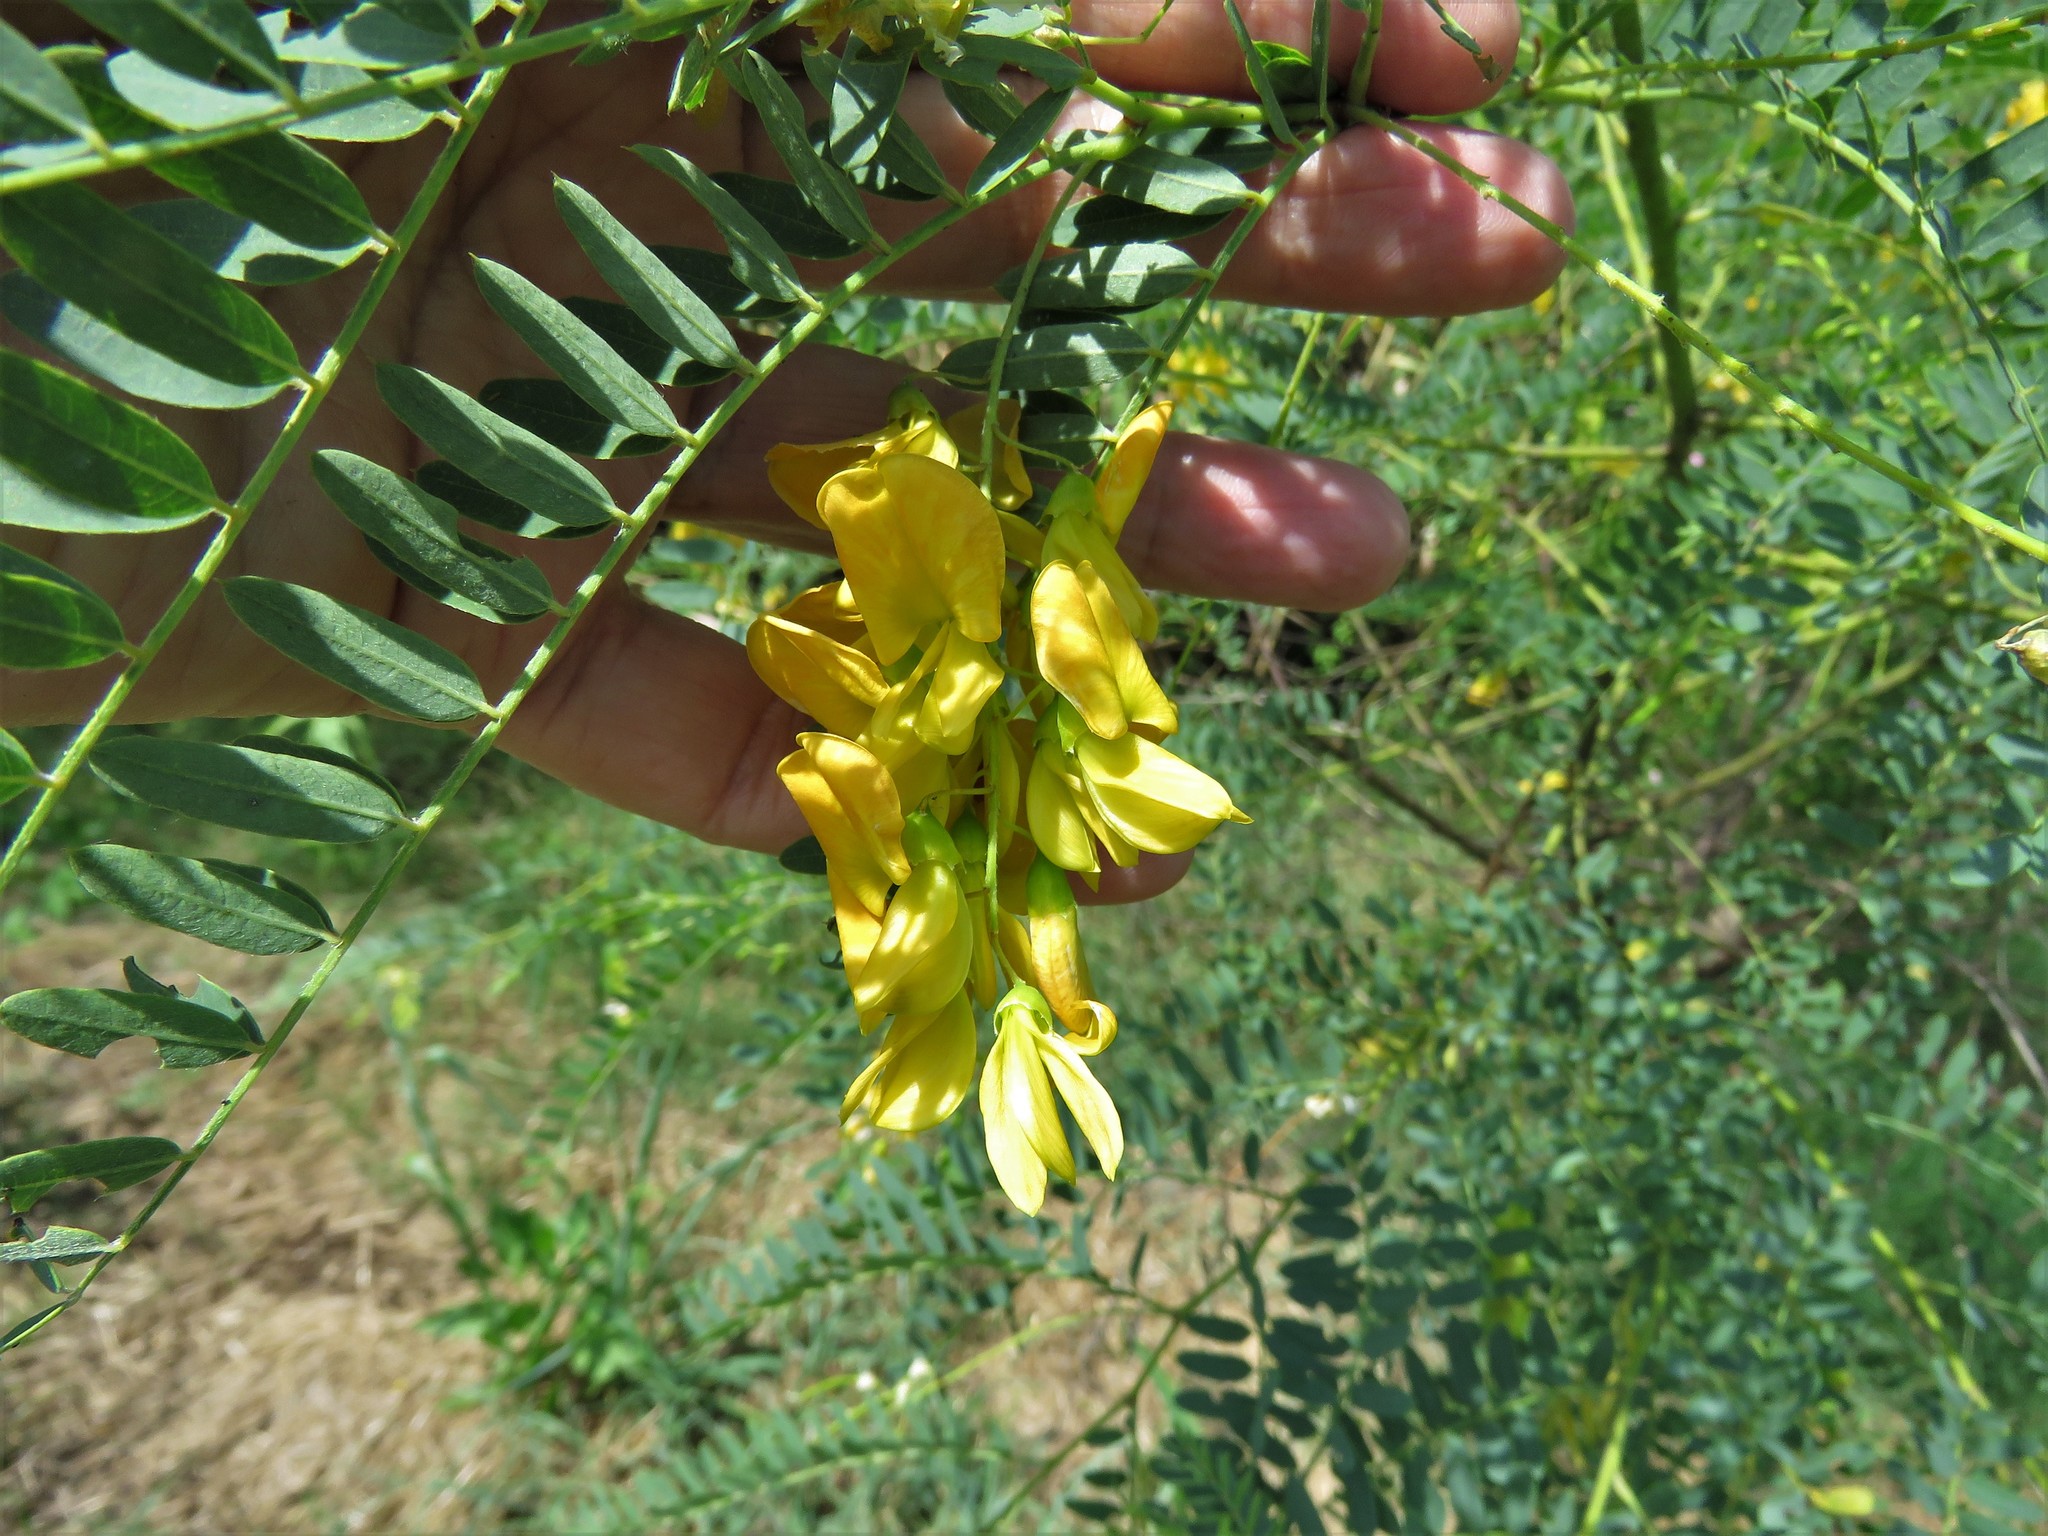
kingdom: Plantae
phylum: Tracheophyta
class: Magnoliopsida
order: Fabales
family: Fabaceae
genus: Sesbania
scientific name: Sesbania drummondii
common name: Poison-bean
